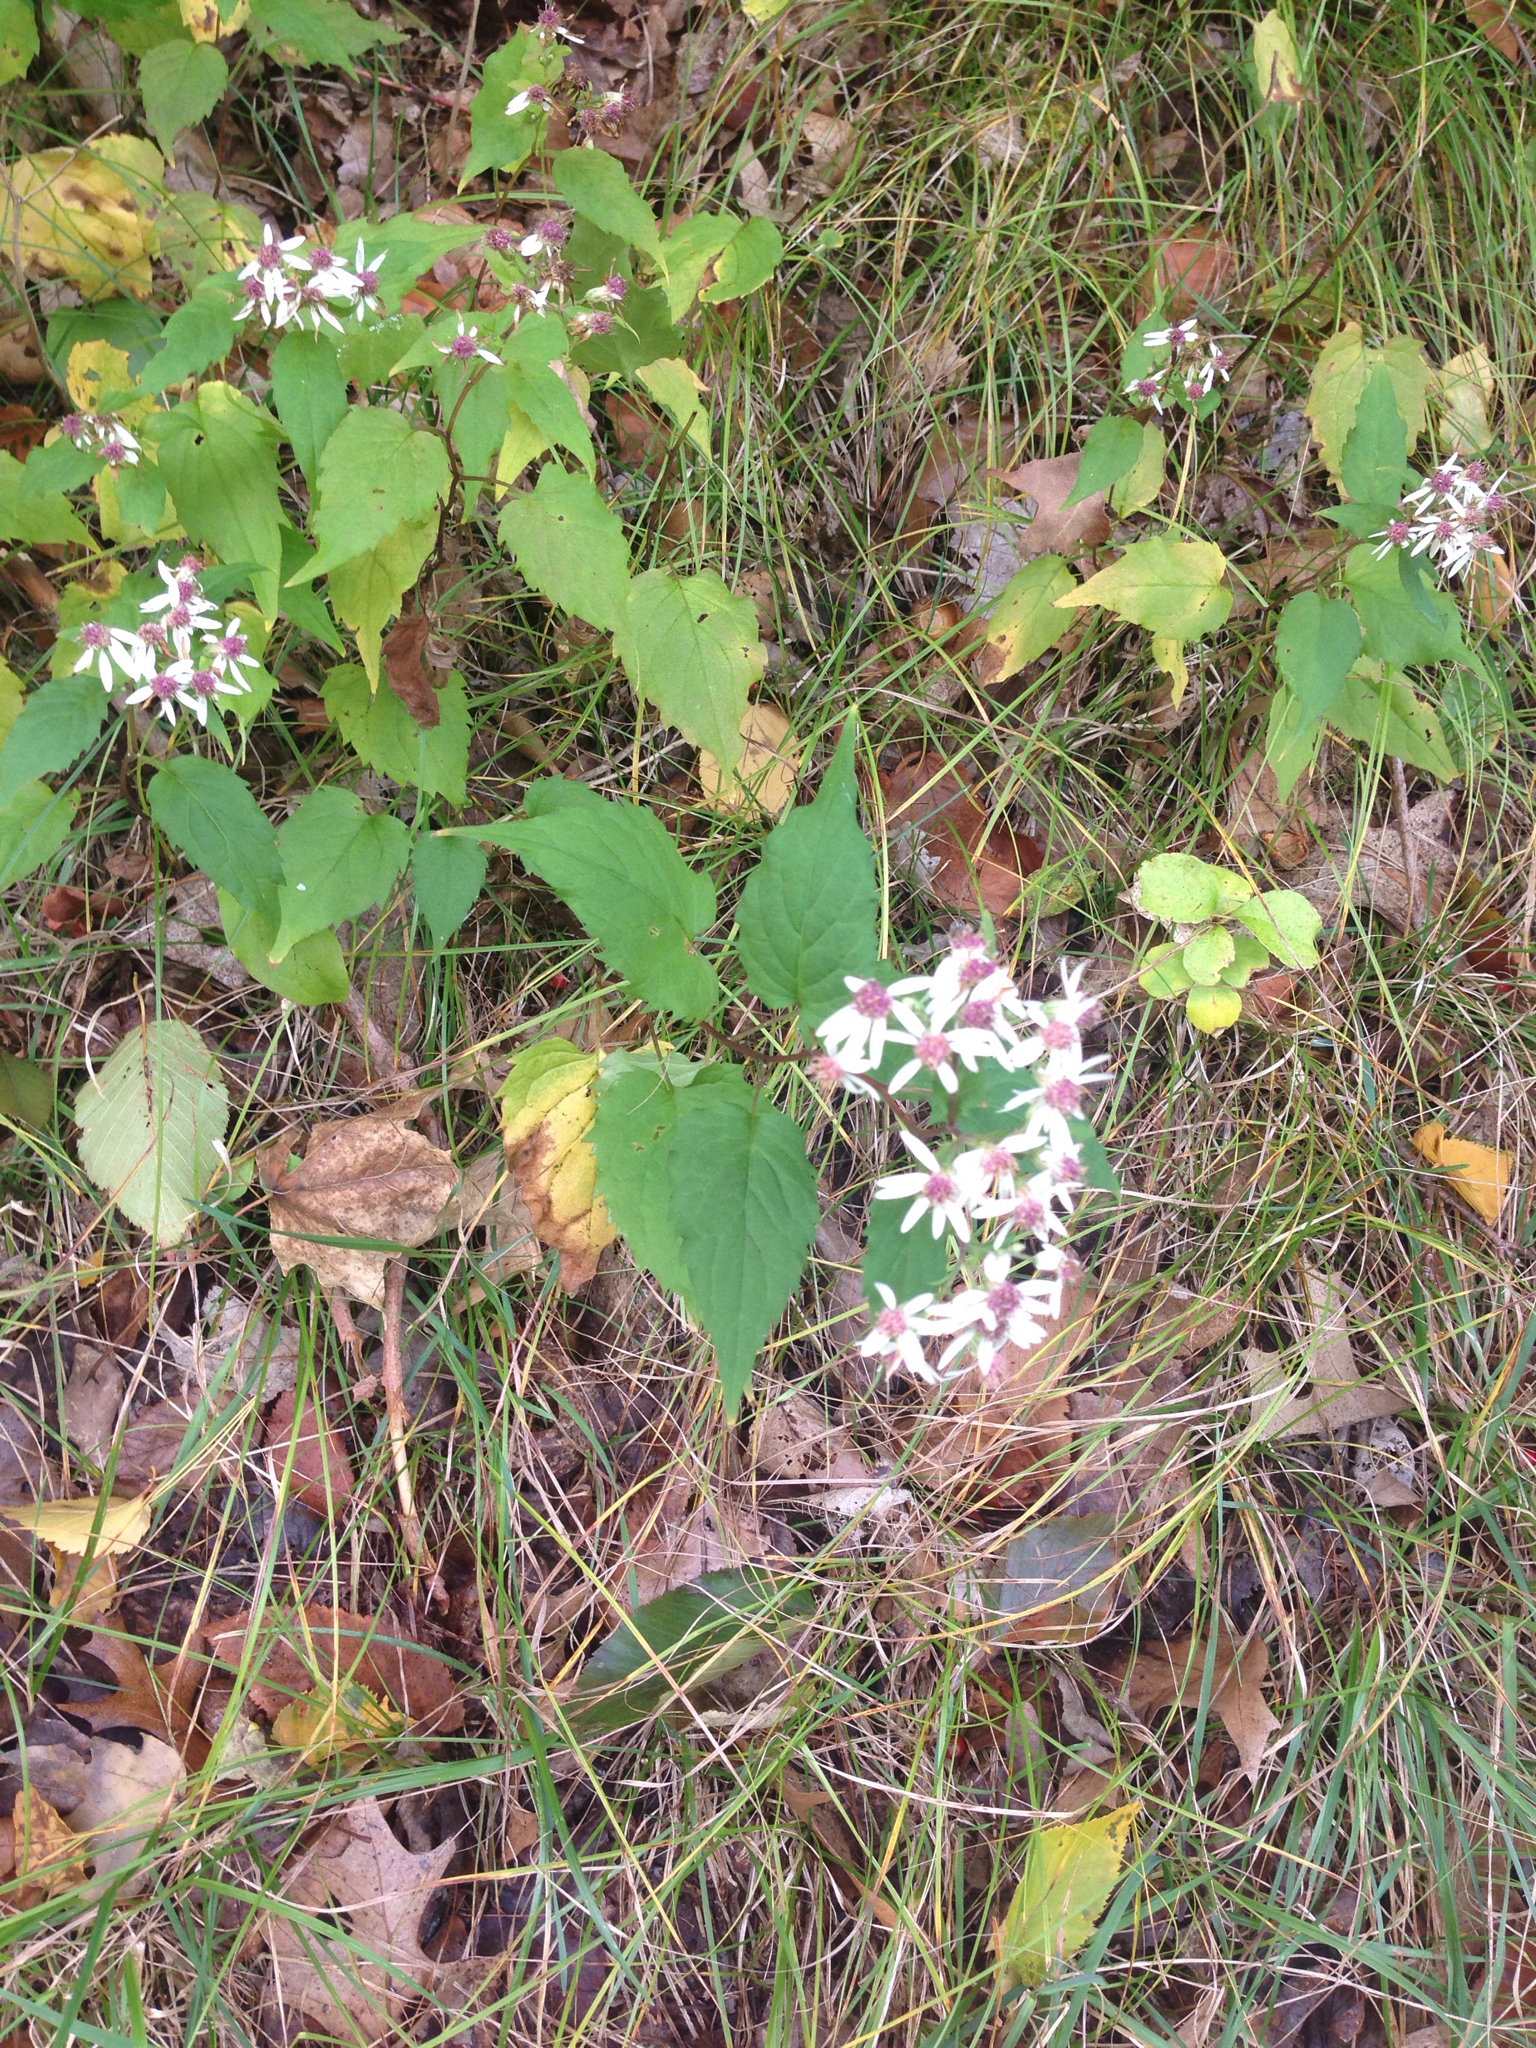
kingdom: Plantae
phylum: Tracheophyta
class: Magnoliopsida
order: Asterales
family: Asteraceae
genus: Symphyotrichum
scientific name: Symphyotrichum cordifolium
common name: Beeweed
